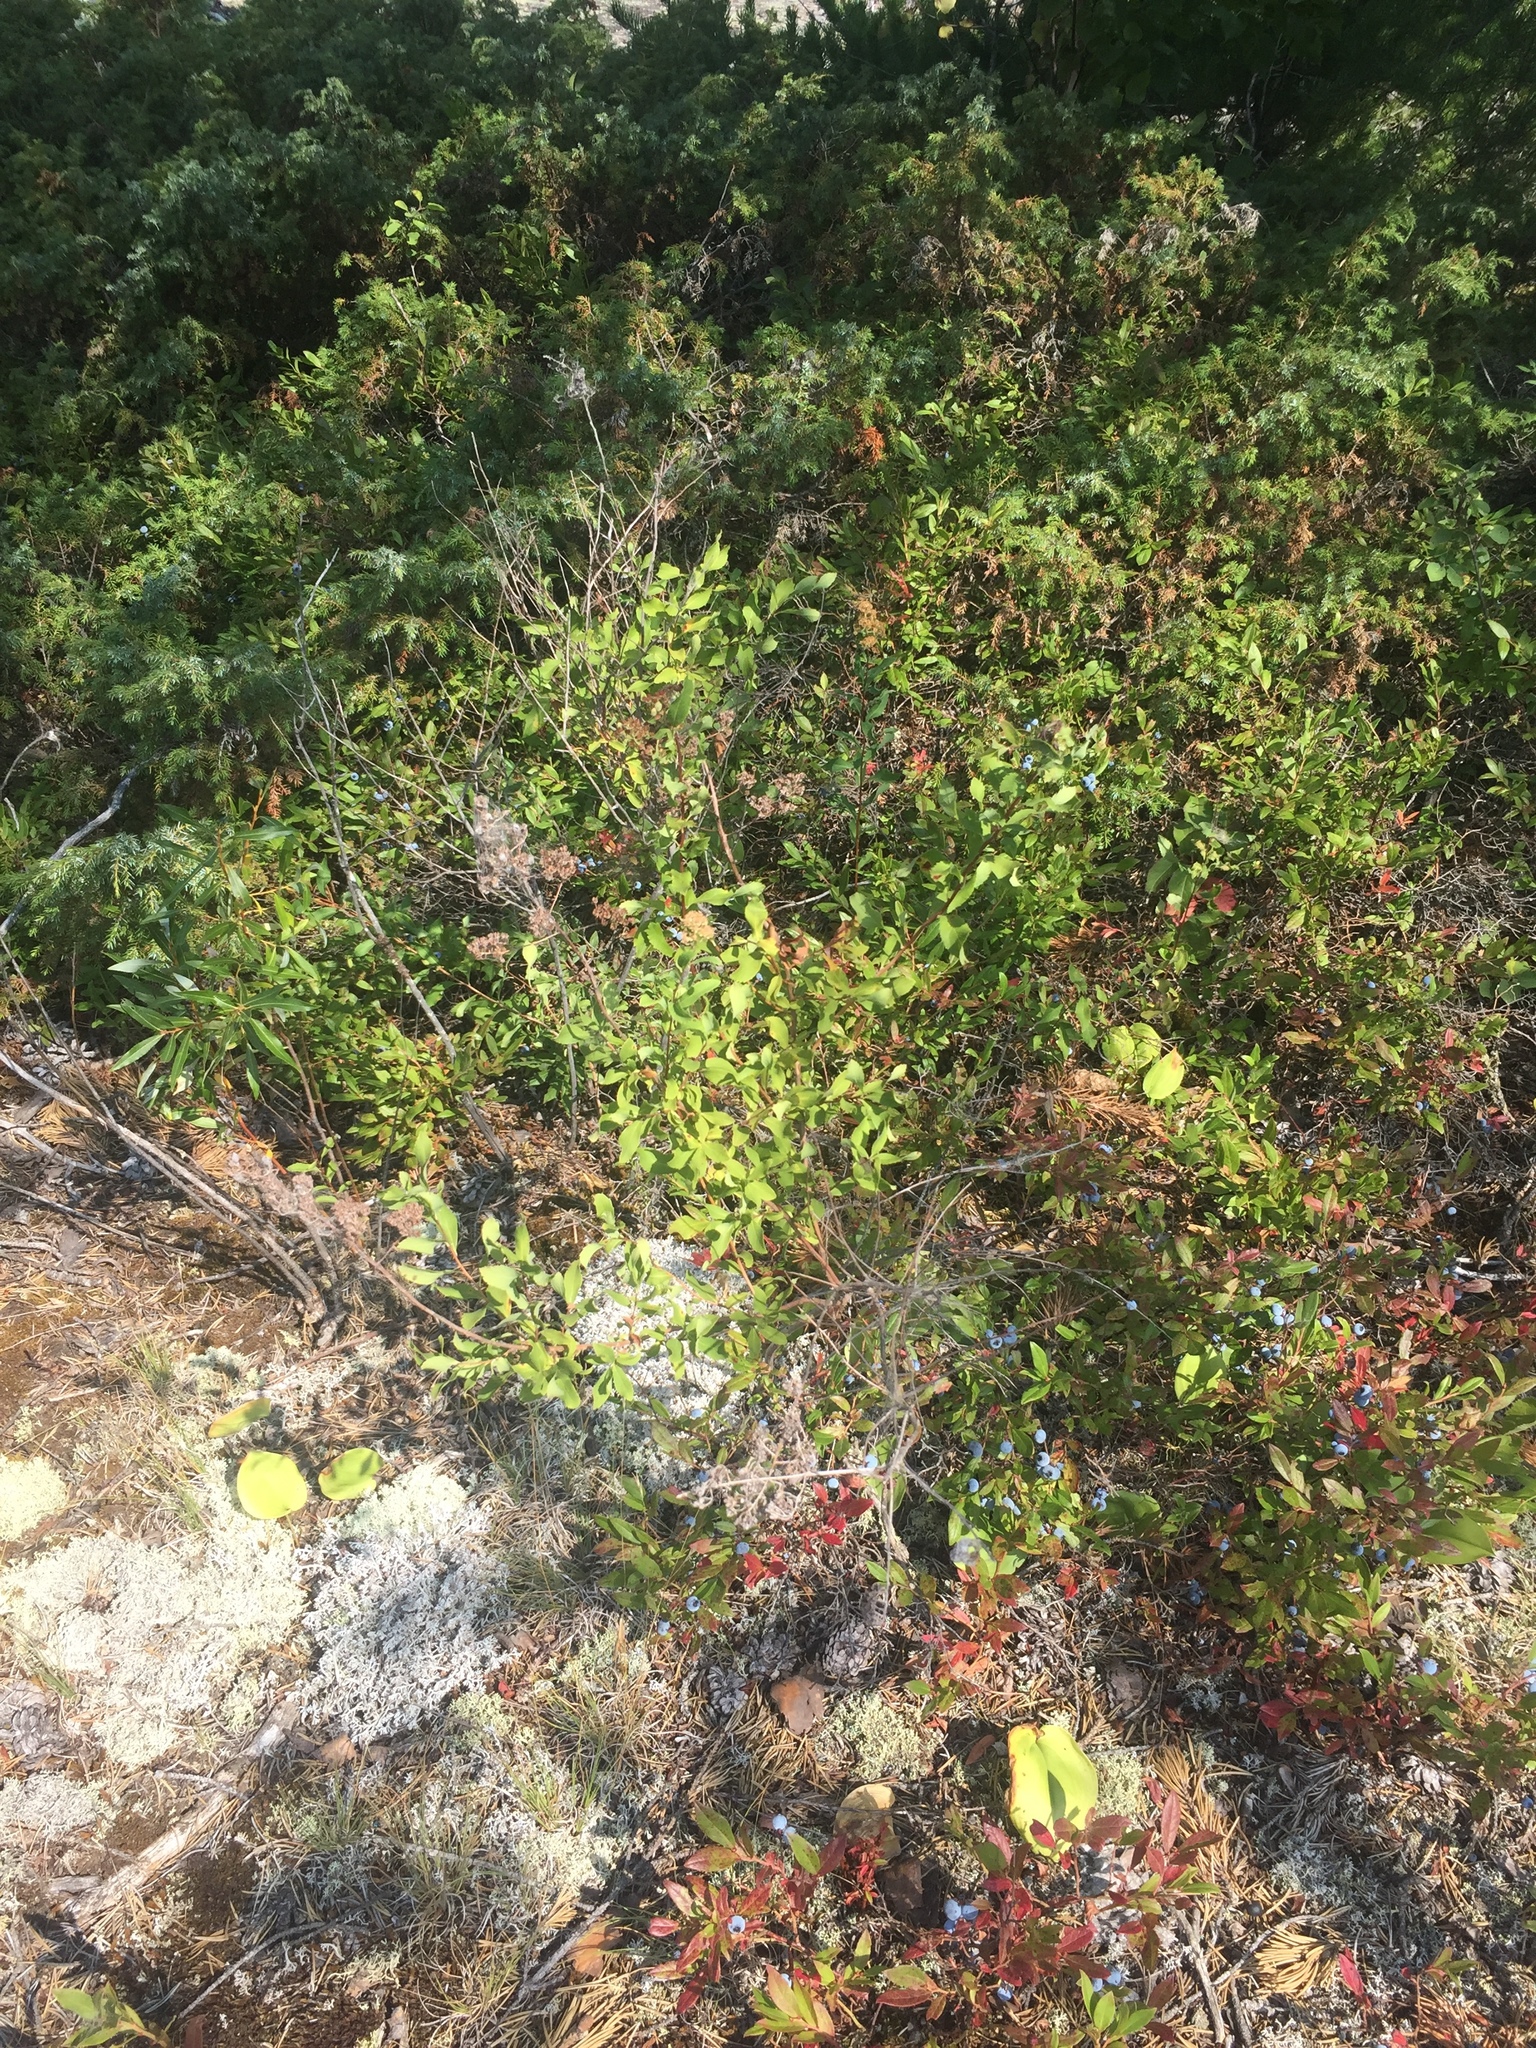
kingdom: Plantae
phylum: Tracheophyta
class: Magnoliopsida
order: Rosales
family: Rosaceae
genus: Spiraea
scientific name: Spiraea alba
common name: Pale bridewort
